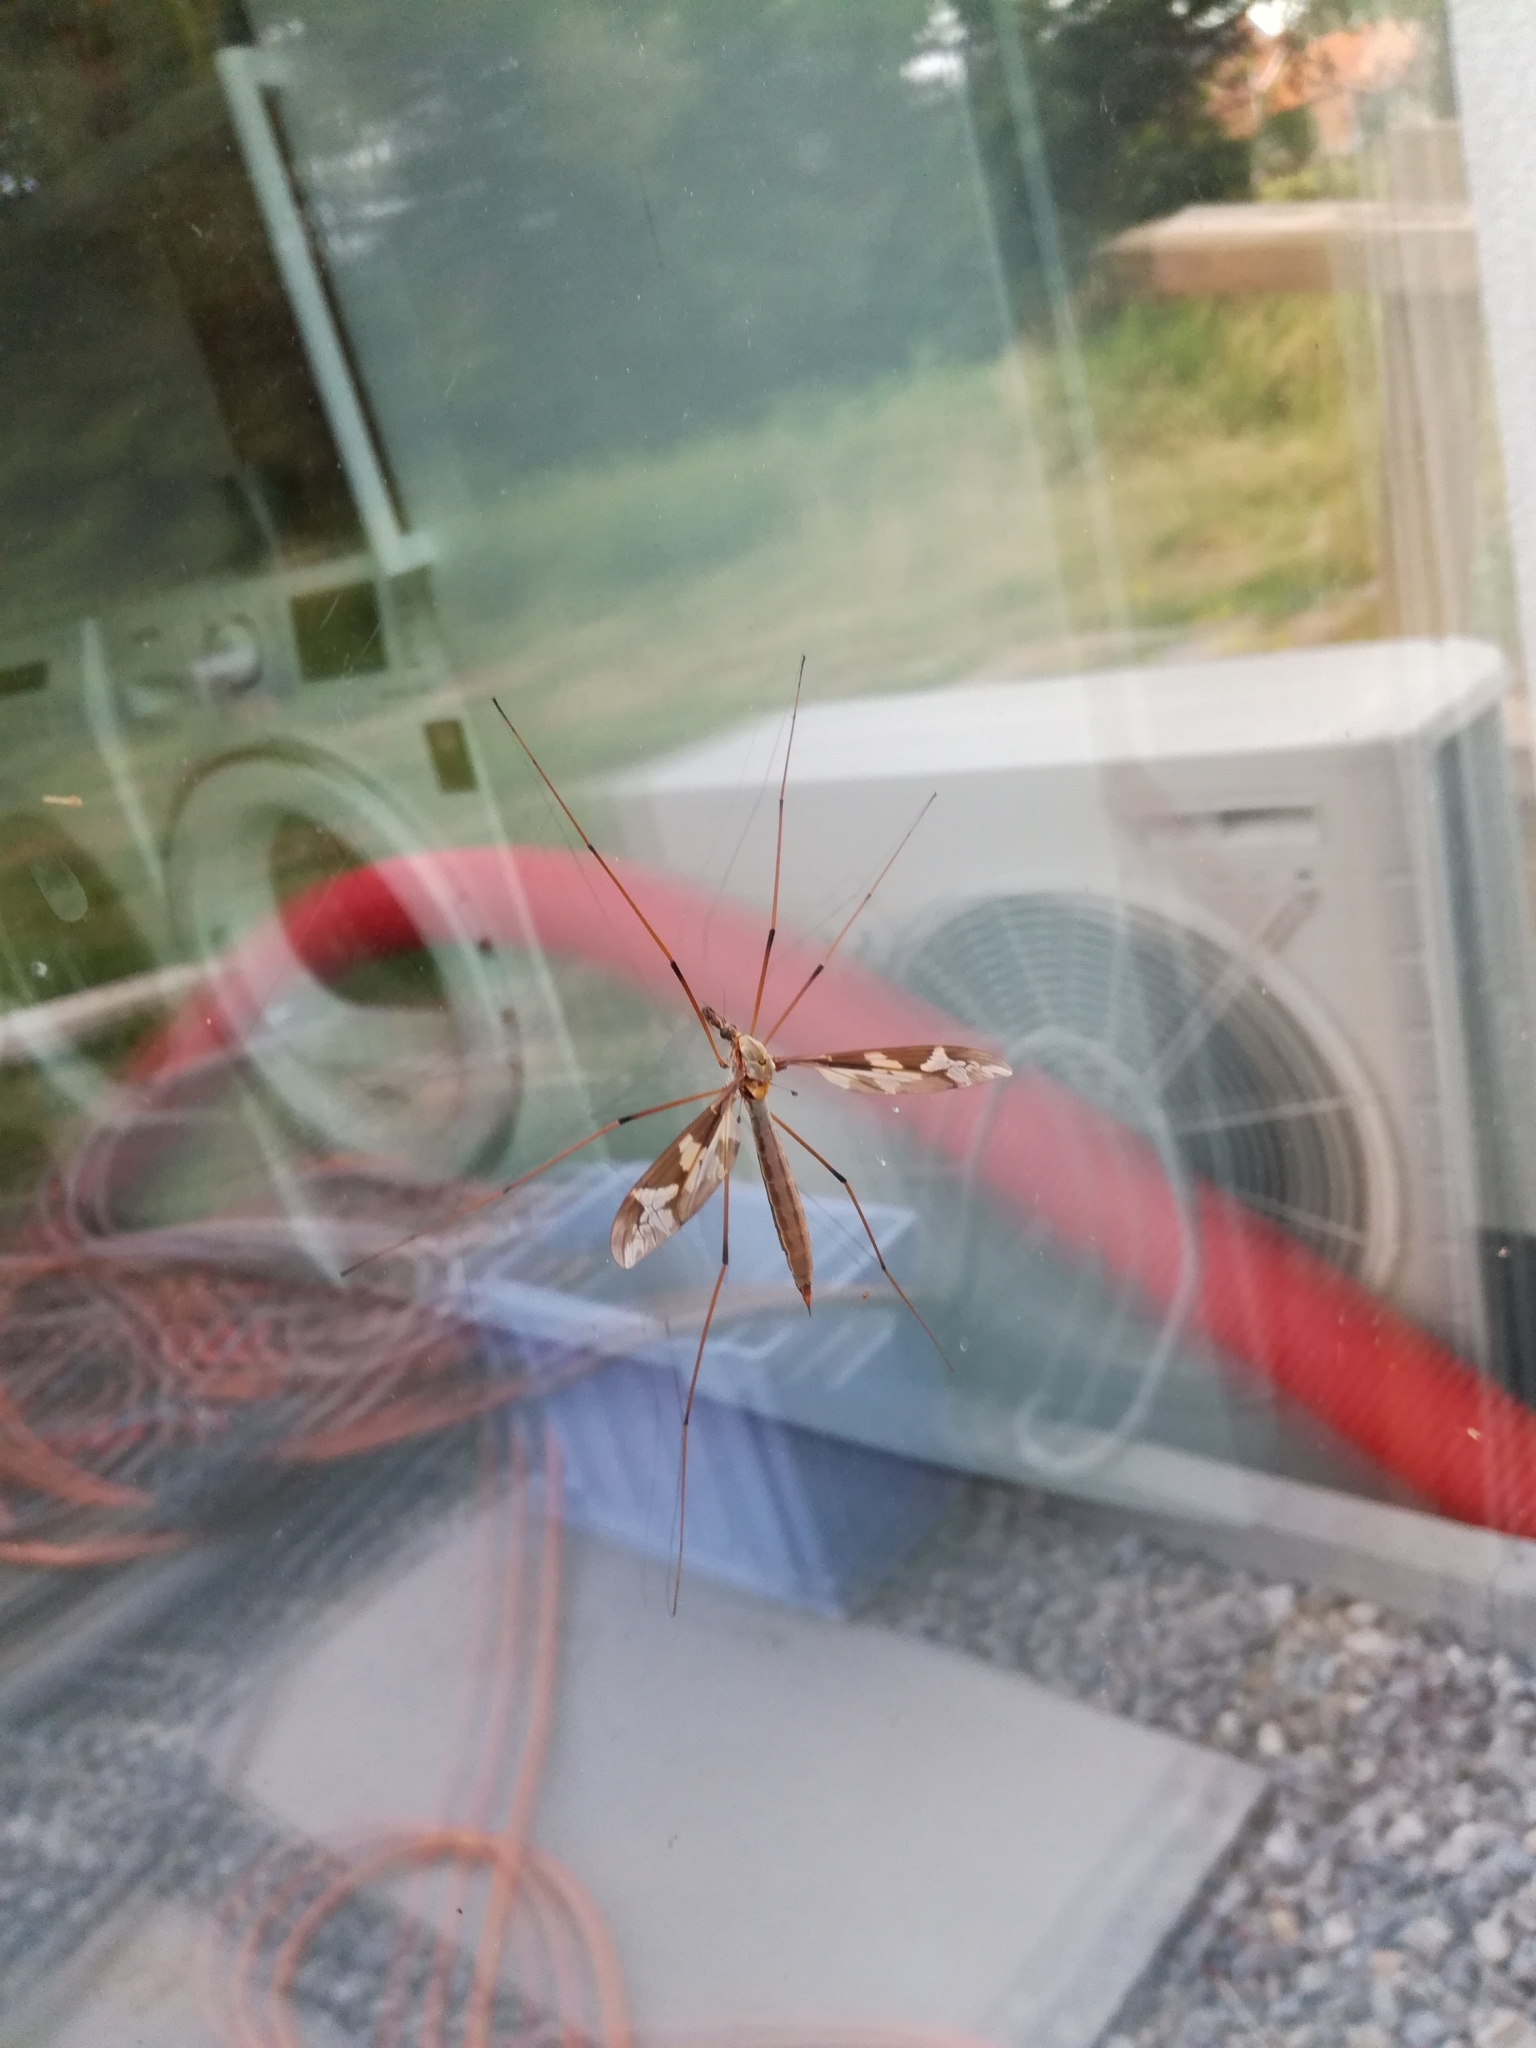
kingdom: Animalia
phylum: Arthropoda
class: Insecta
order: Diptera
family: Tipulidae
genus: Tipula
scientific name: Tipula maxima
